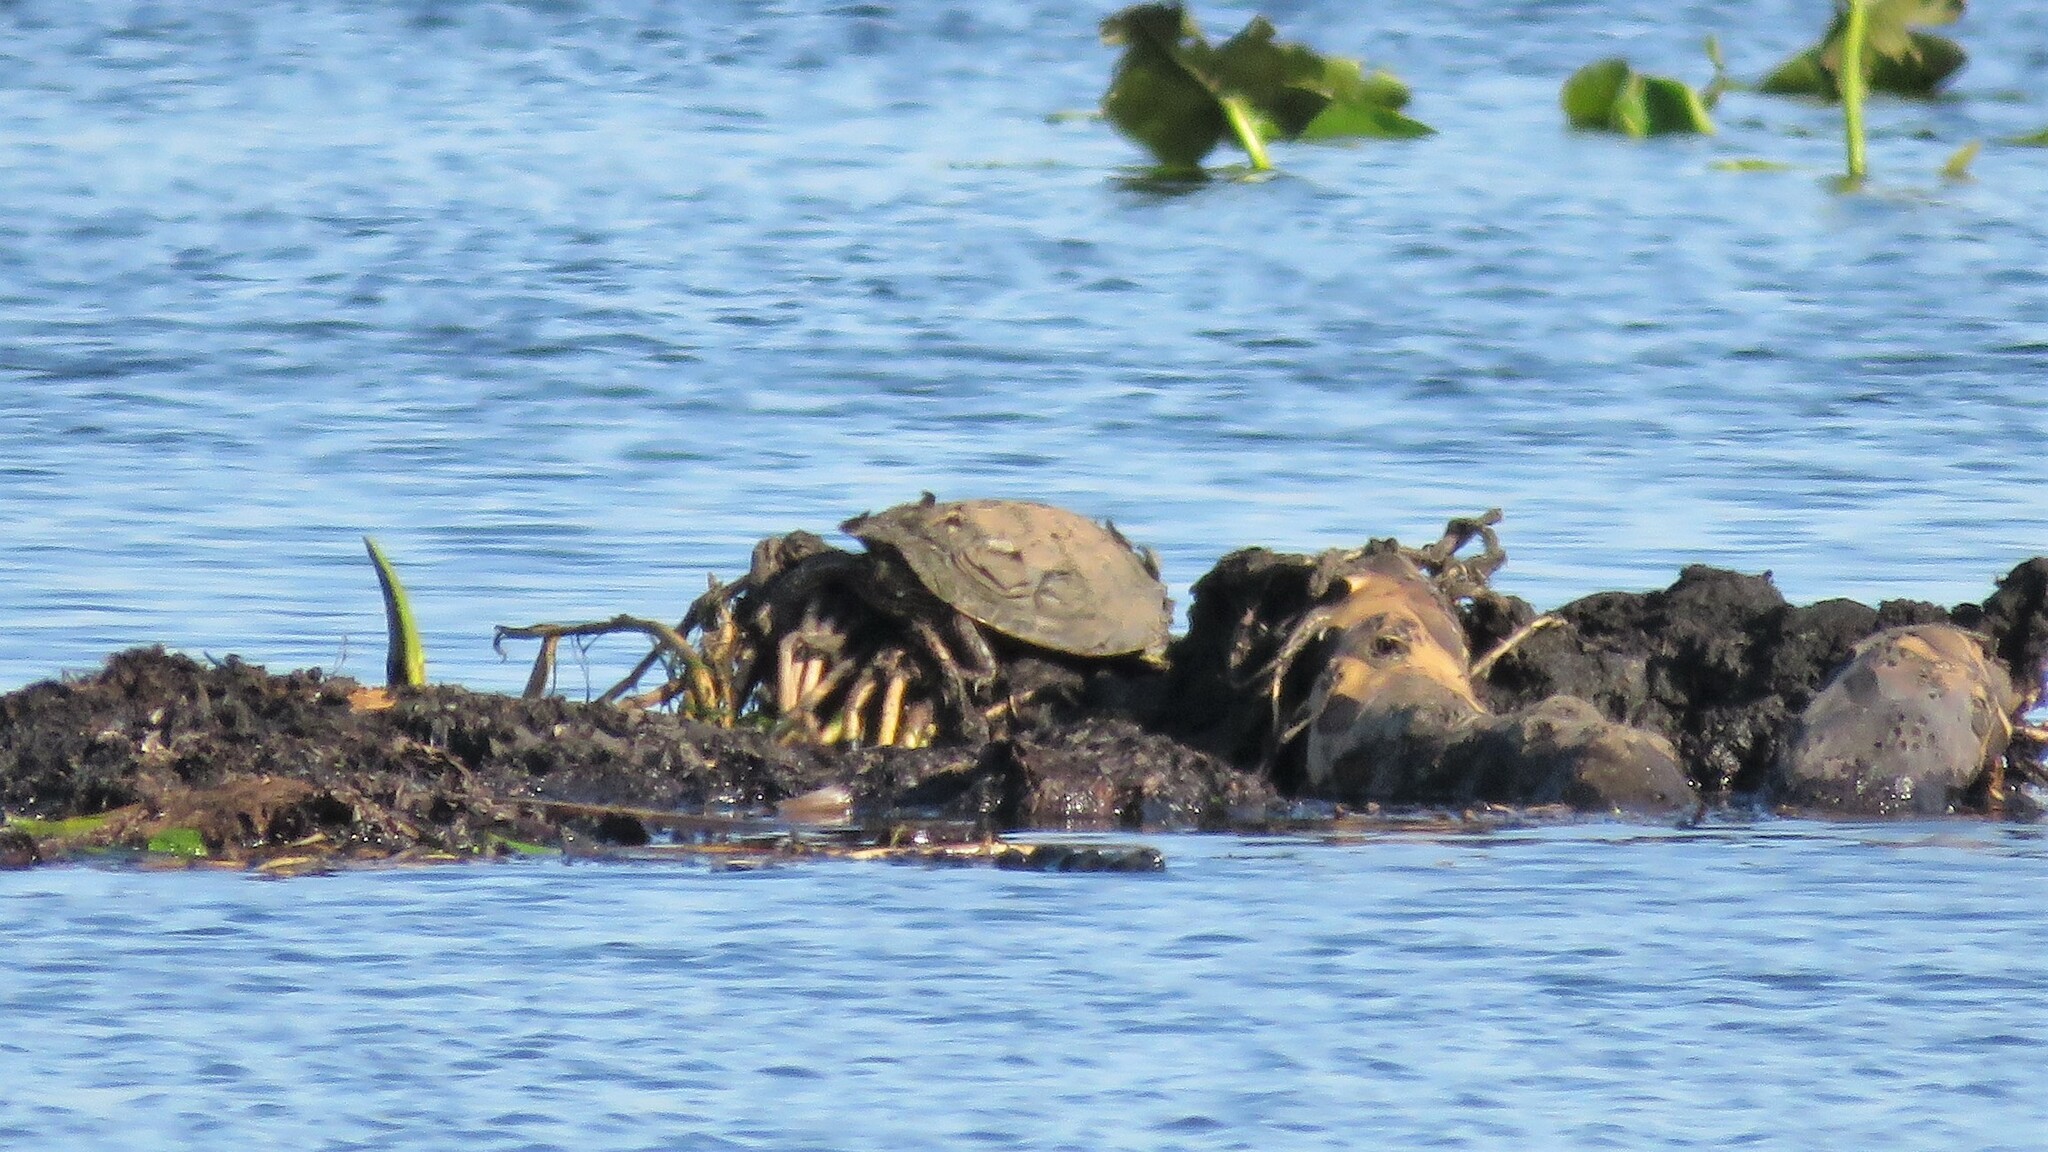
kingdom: Animalia
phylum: Chordata
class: Testudines
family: Emydidae
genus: Graptemys
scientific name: Graptemys geographica
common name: Common map turtle
